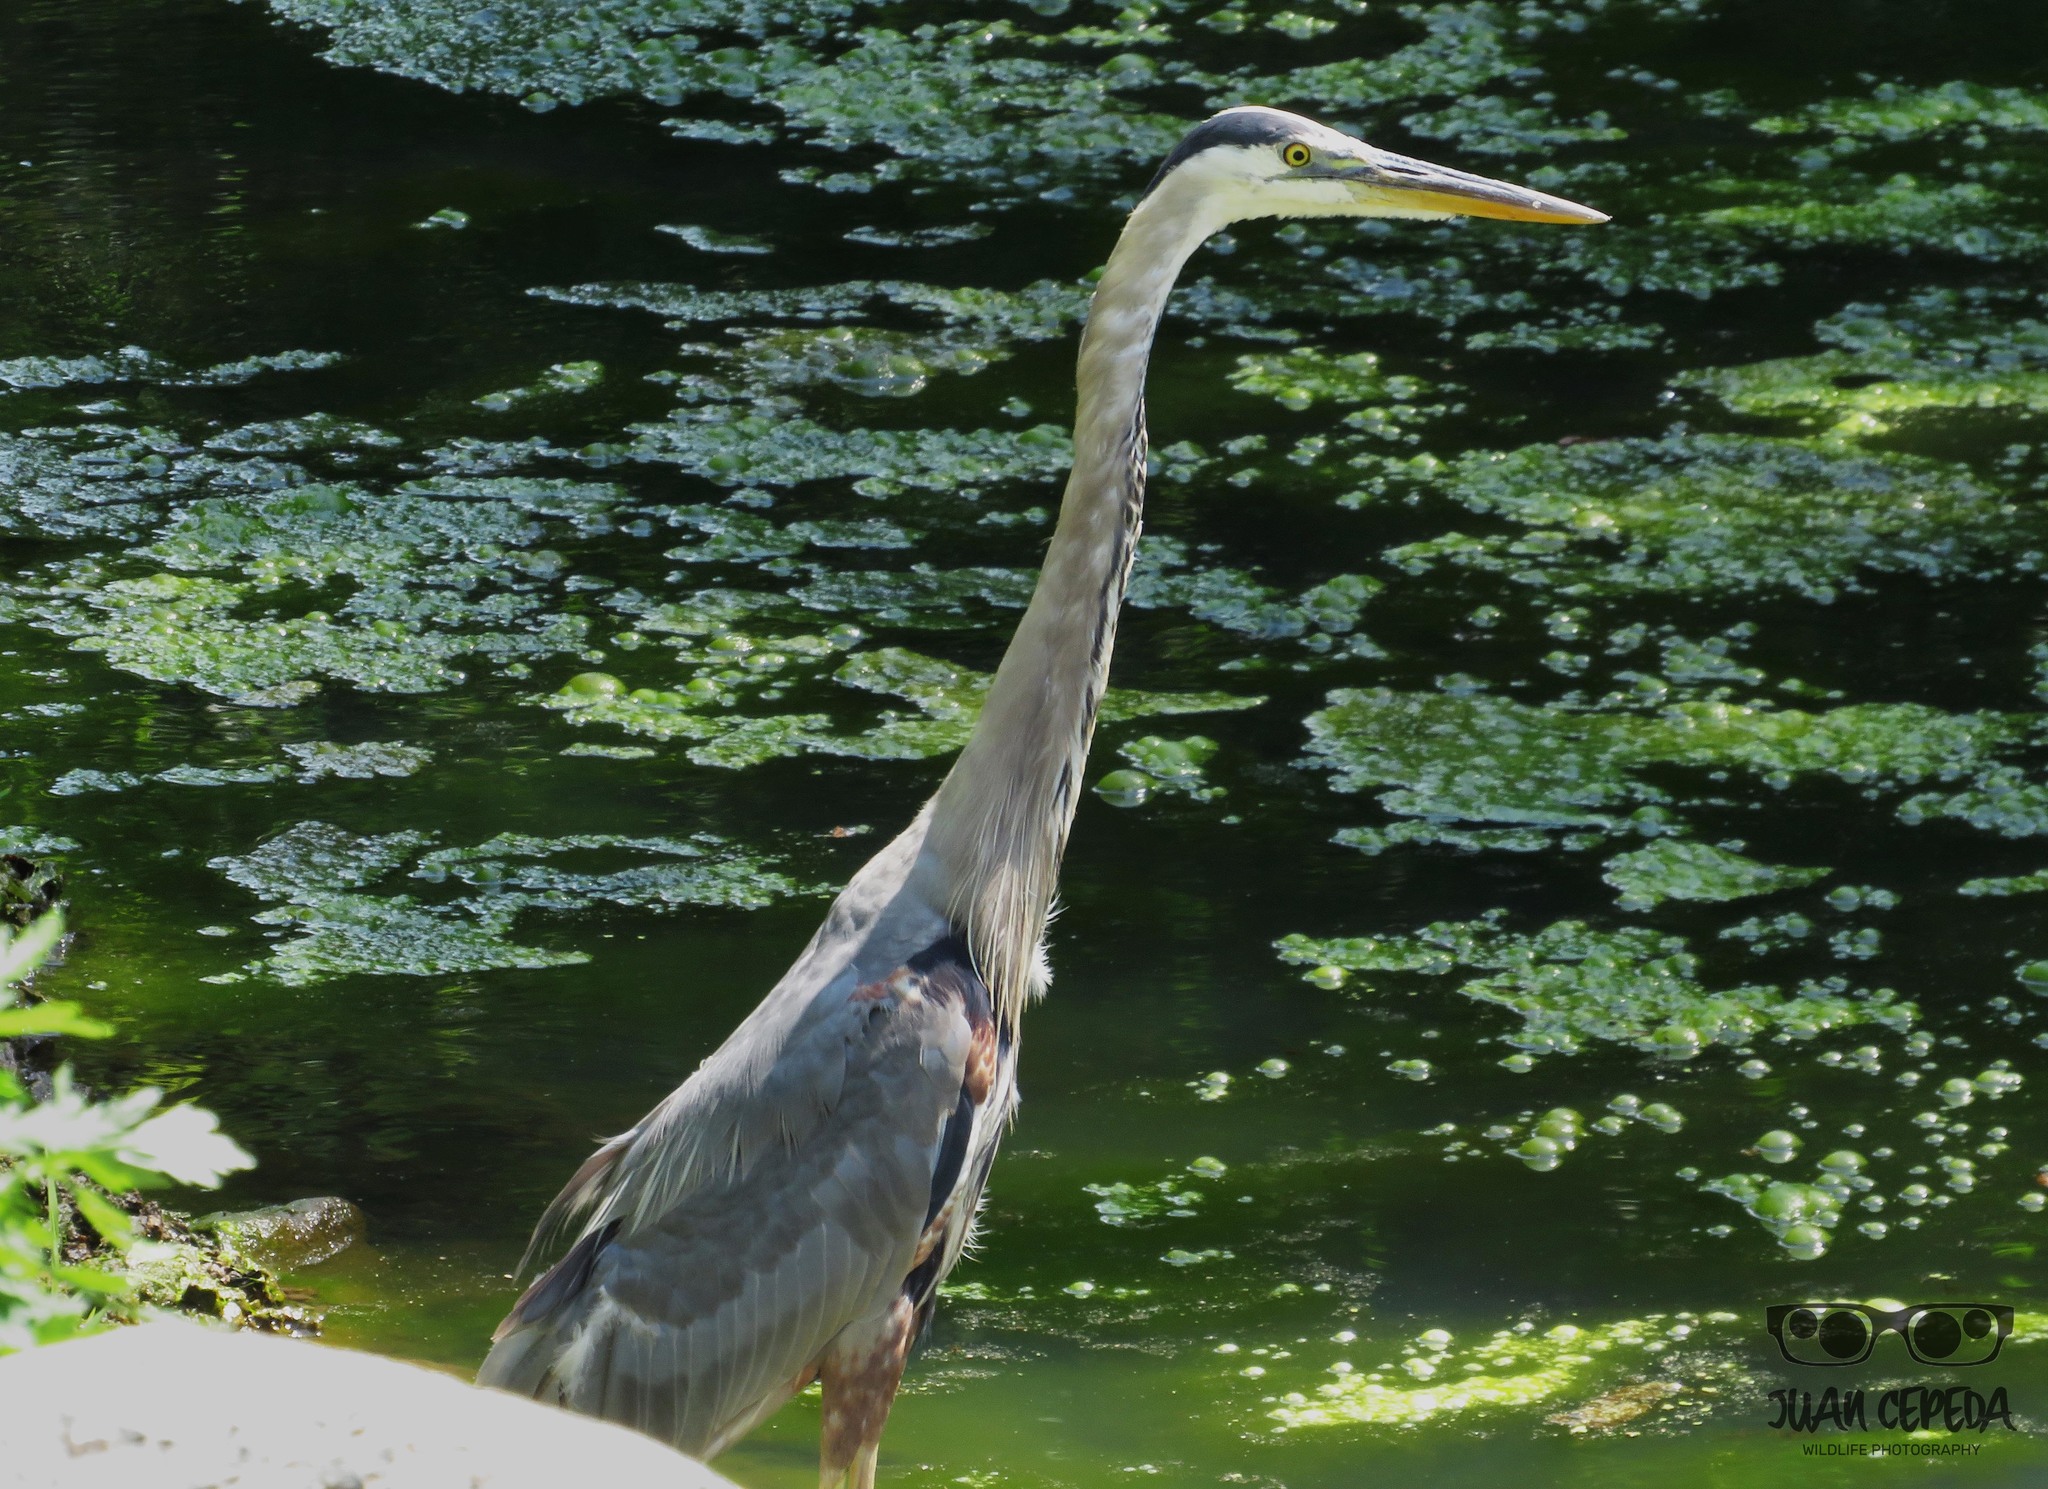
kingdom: Animalia
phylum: Chordata
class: Aves
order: Pelecaniformes
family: Ardeidae
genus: Ardea
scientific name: Ardea herodias
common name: Great blue heron
